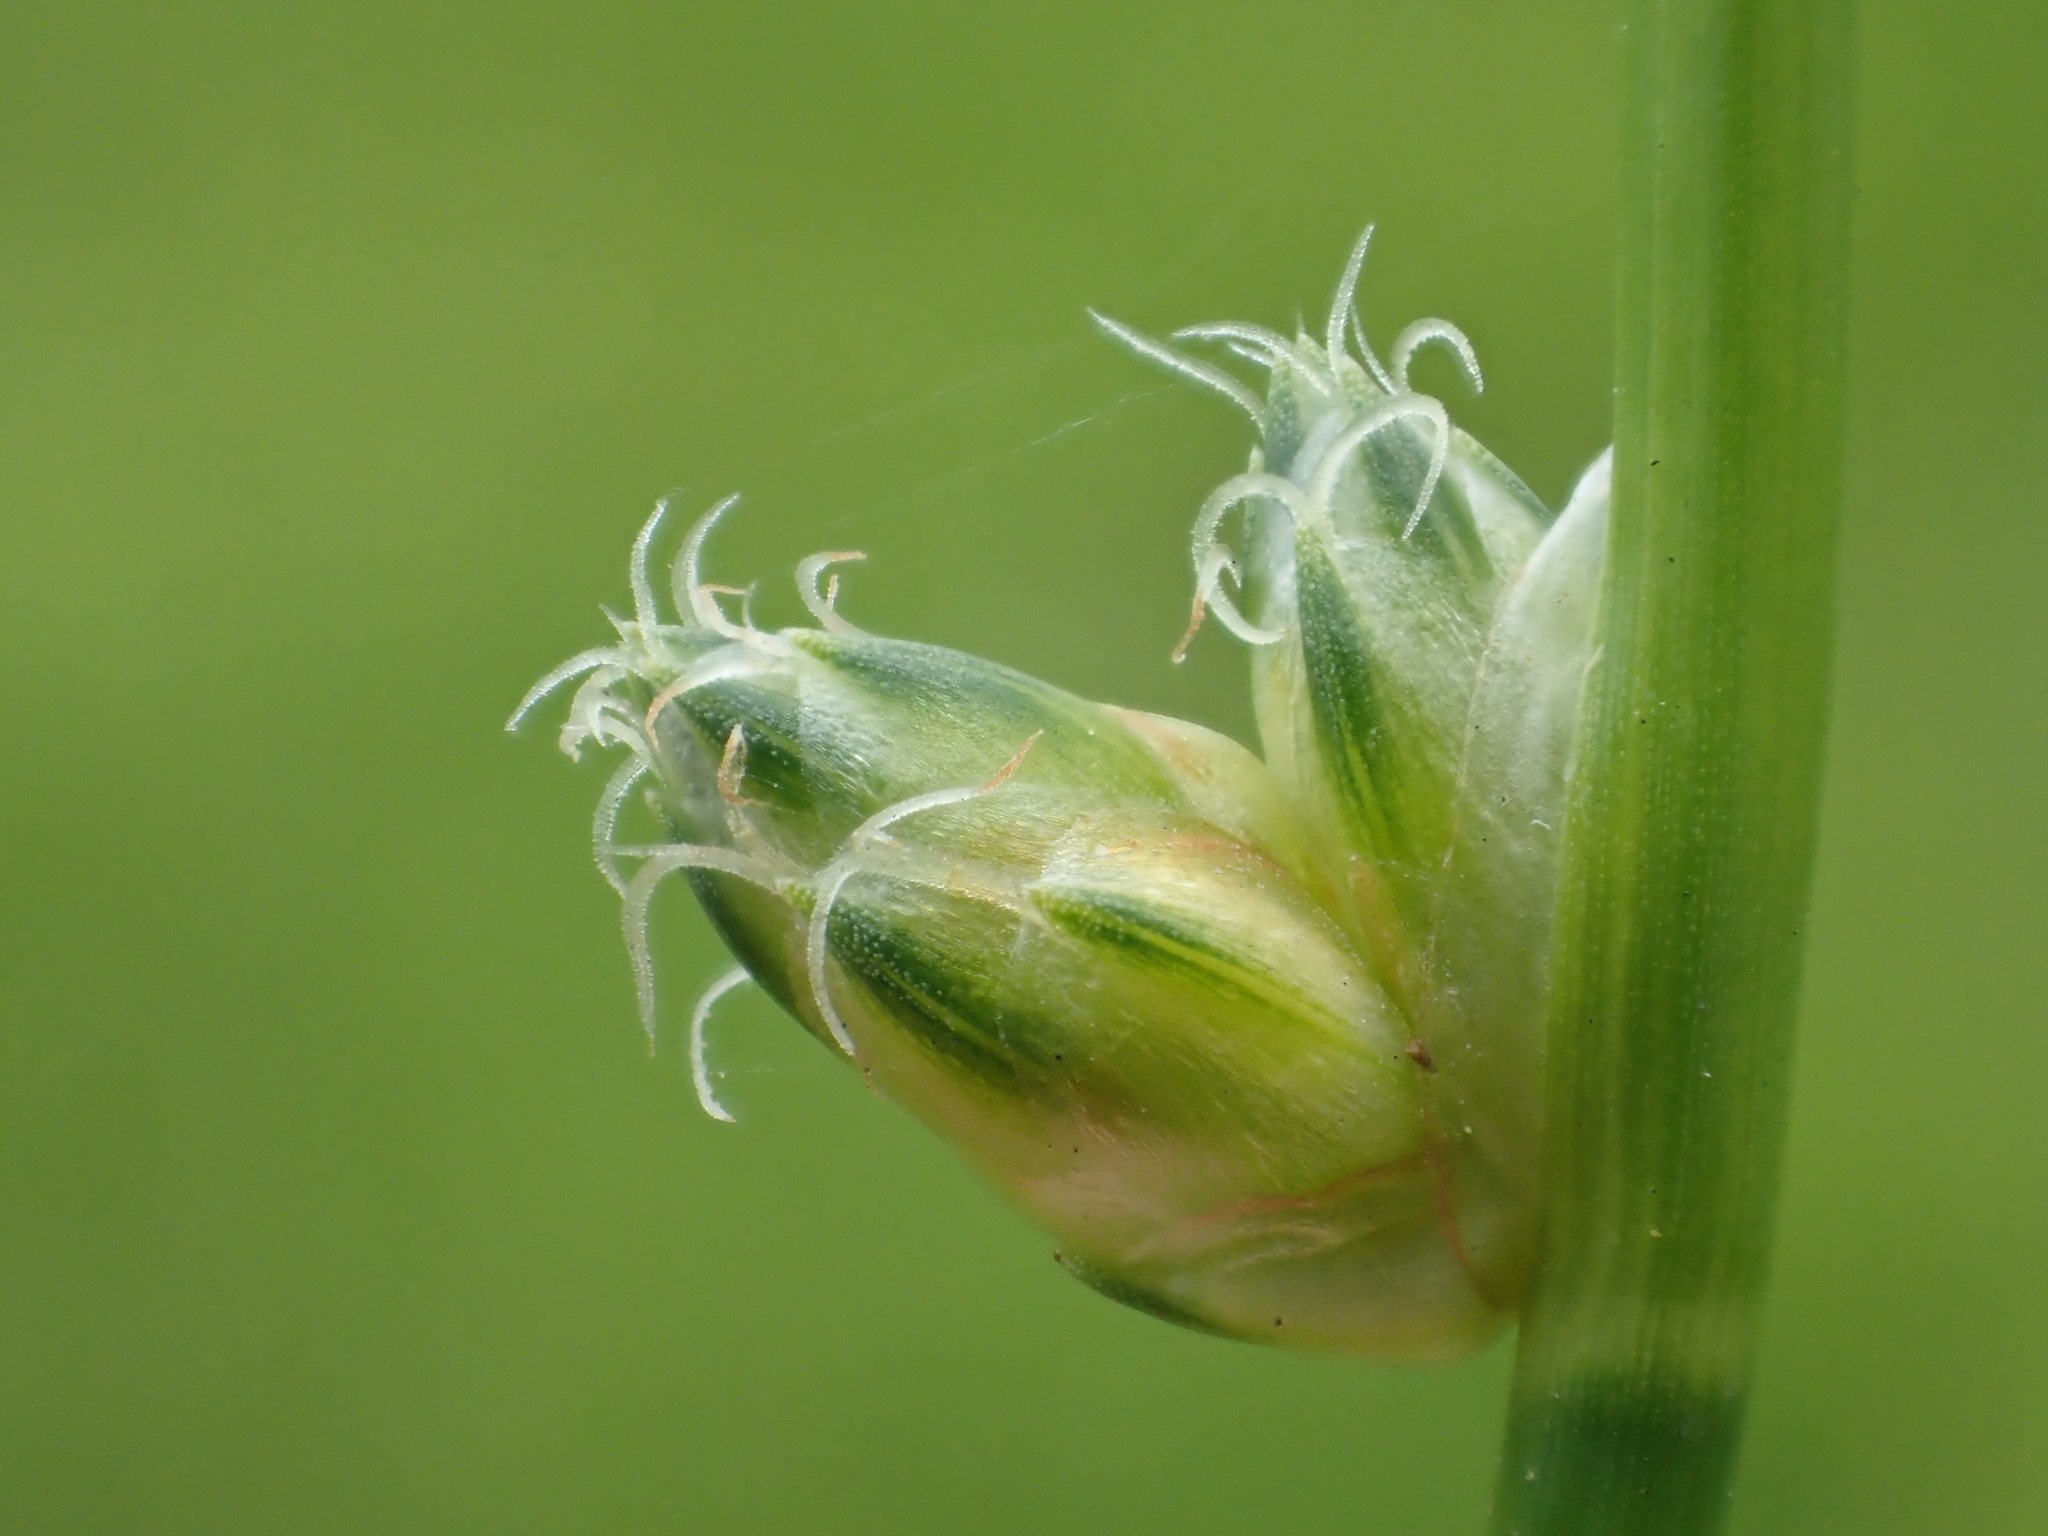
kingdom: Plantae
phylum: Tracheophyta
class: Liliopsida
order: Poales
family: Cyperaceae
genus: Schoenoplectiella
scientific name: Schoenoplectiella juncoides
